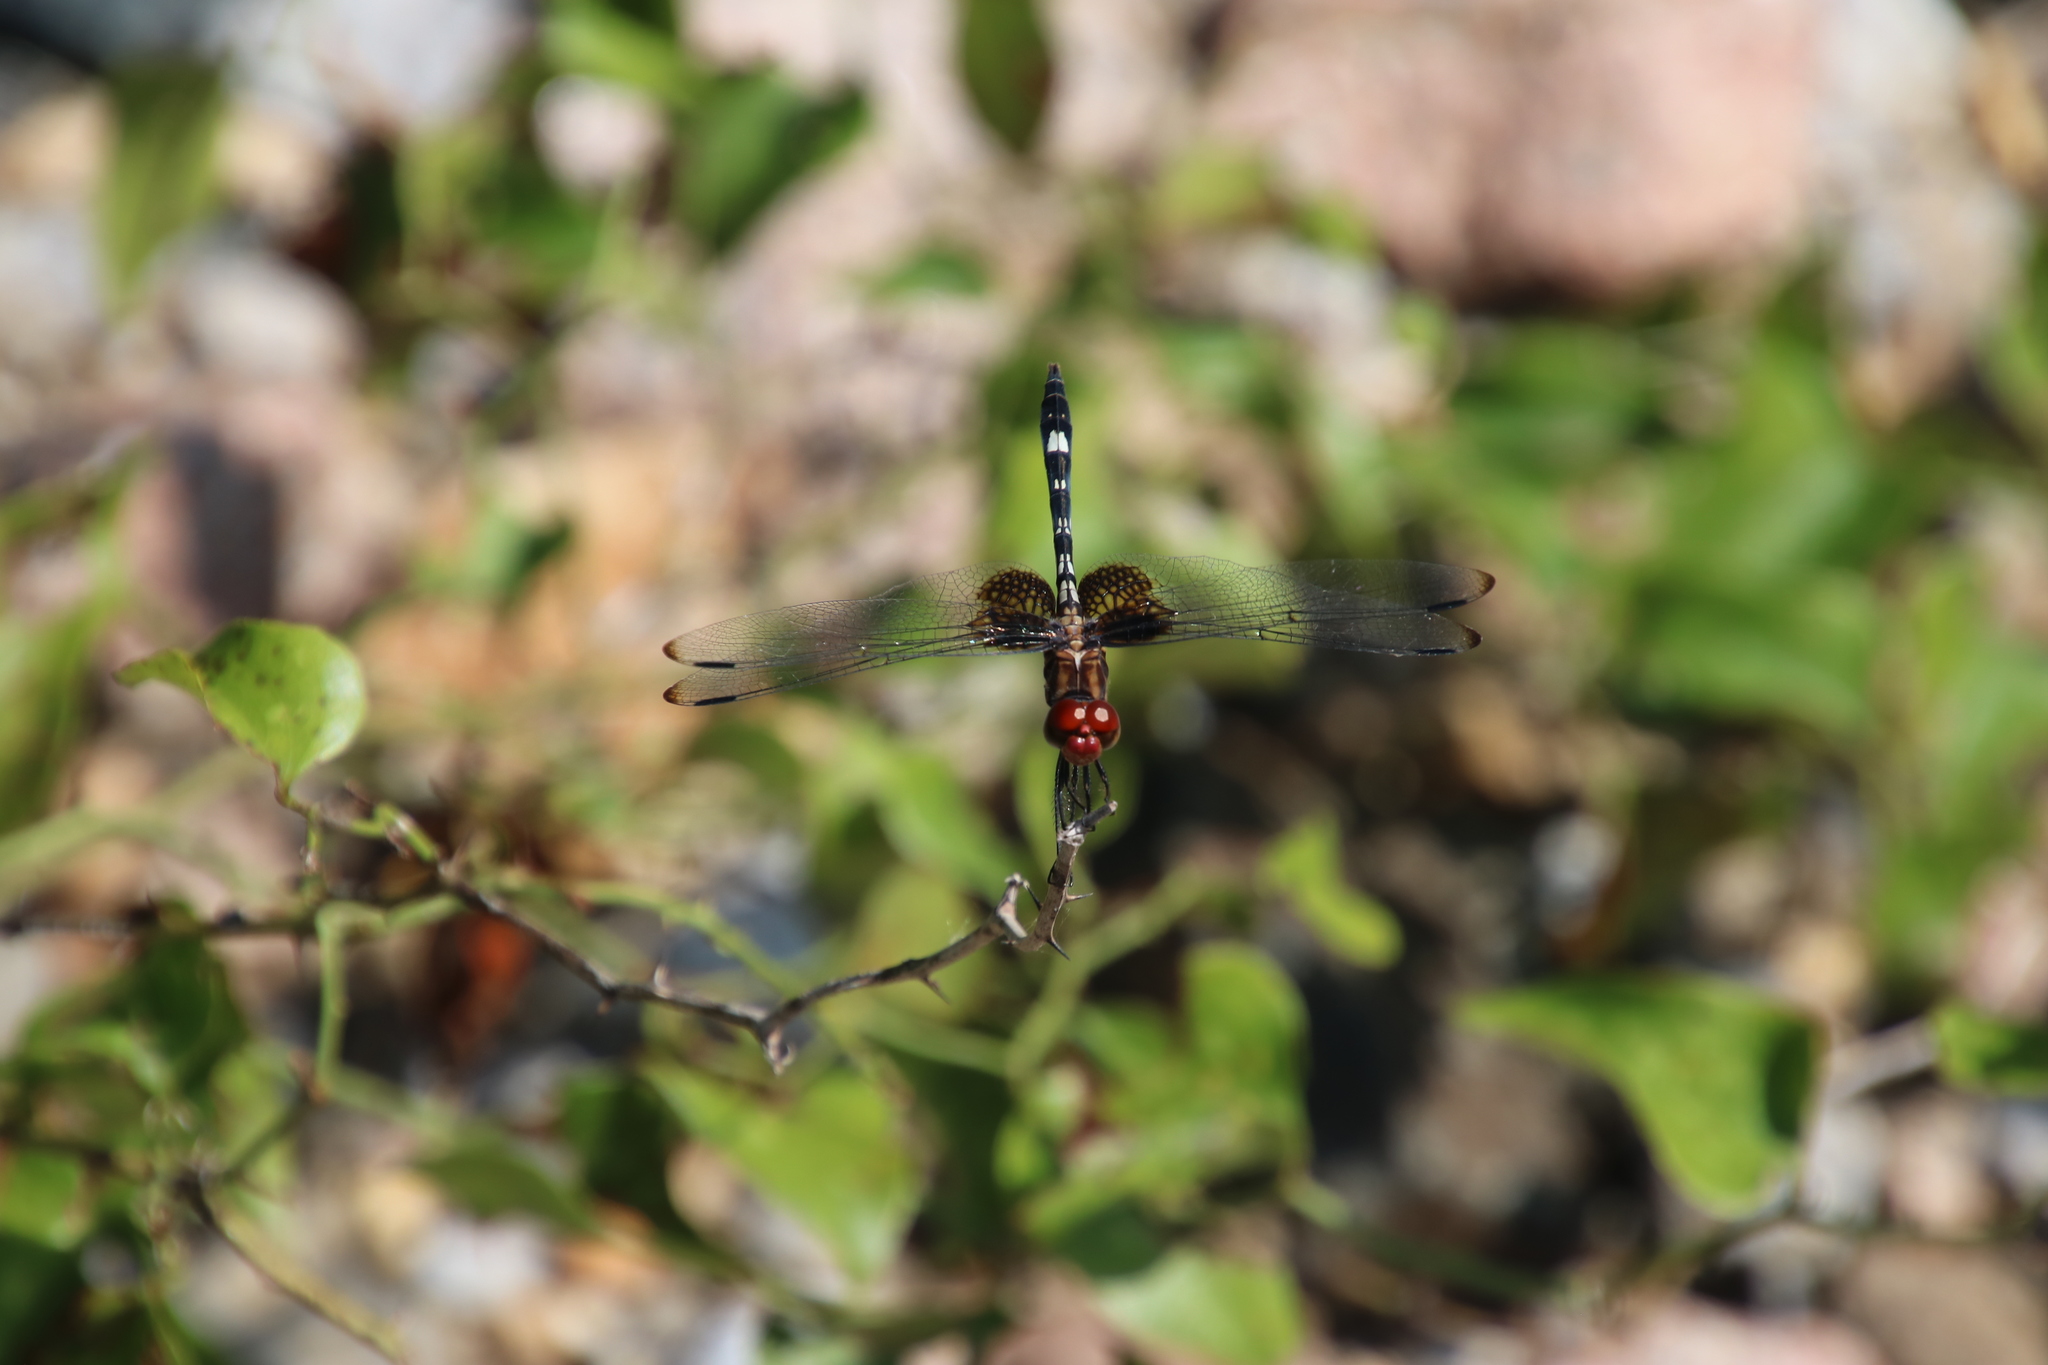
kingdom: Animalia
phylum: Arthropoda
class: Insecta
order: Odonata
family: Libellulidae
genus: Dythemis
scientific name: Dythemis fugax
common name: Checkered setwing
